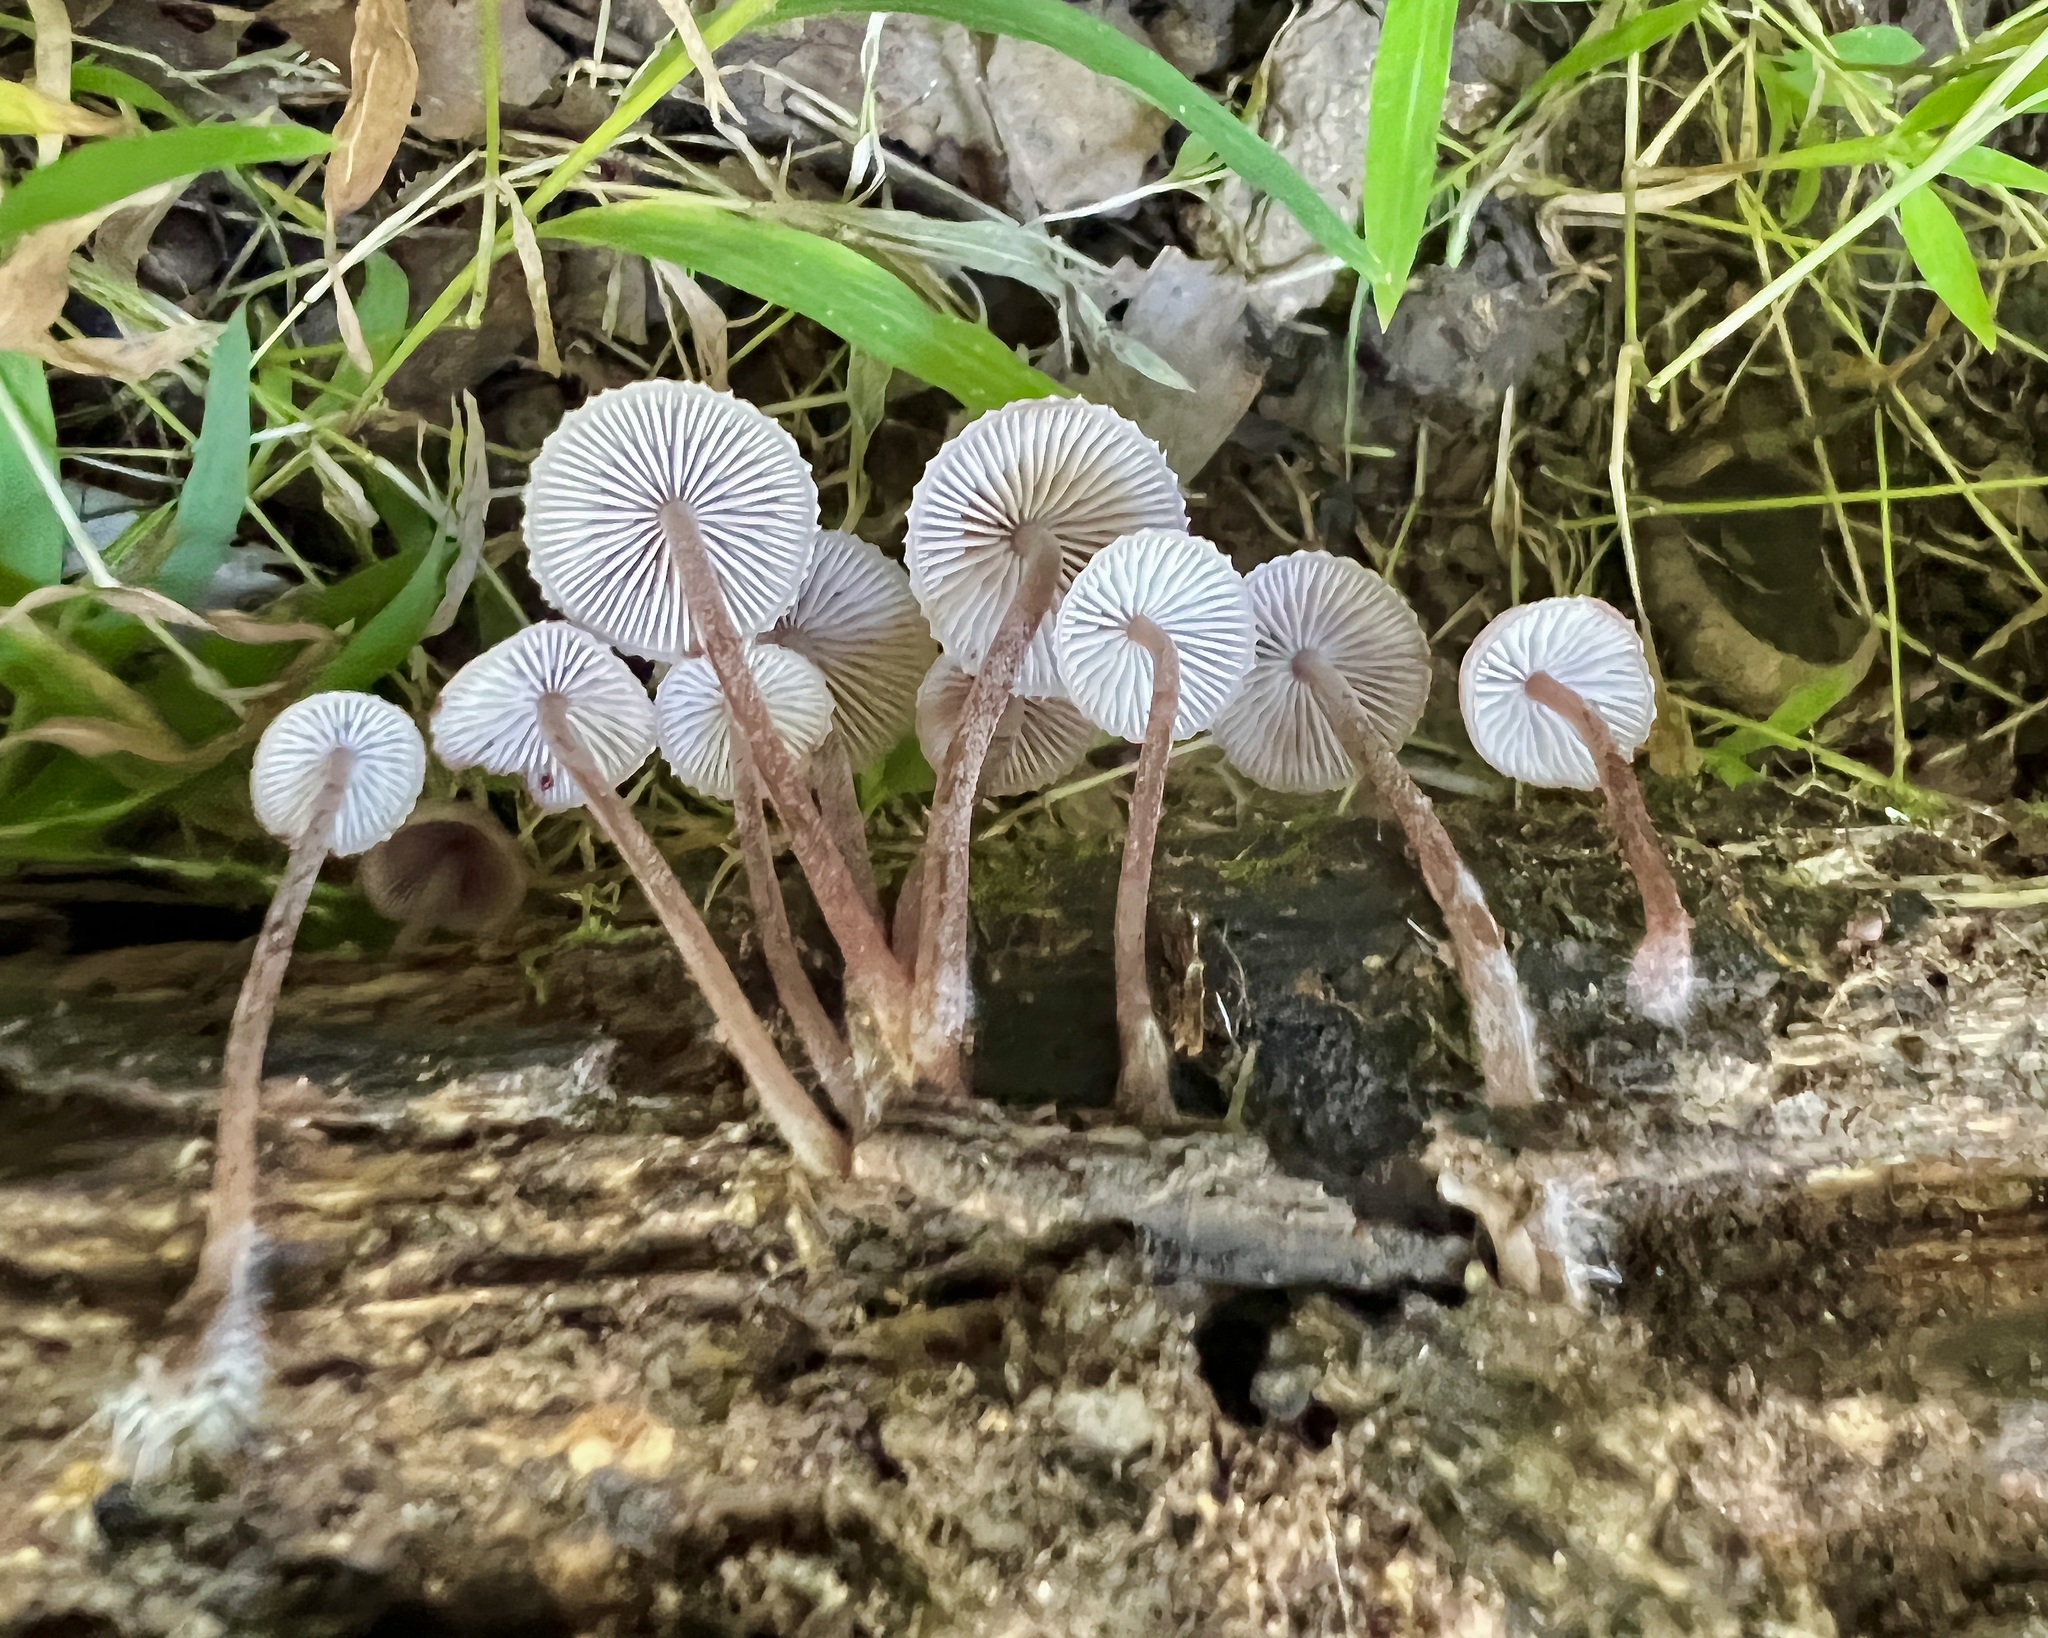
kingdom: Fungi
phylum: Basidiomycota
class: Agaricomycetes
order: Agaricales
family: Mycenaceae
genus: Mycena
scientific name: Mycena haematopus
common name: Burgundydrop bonnet
